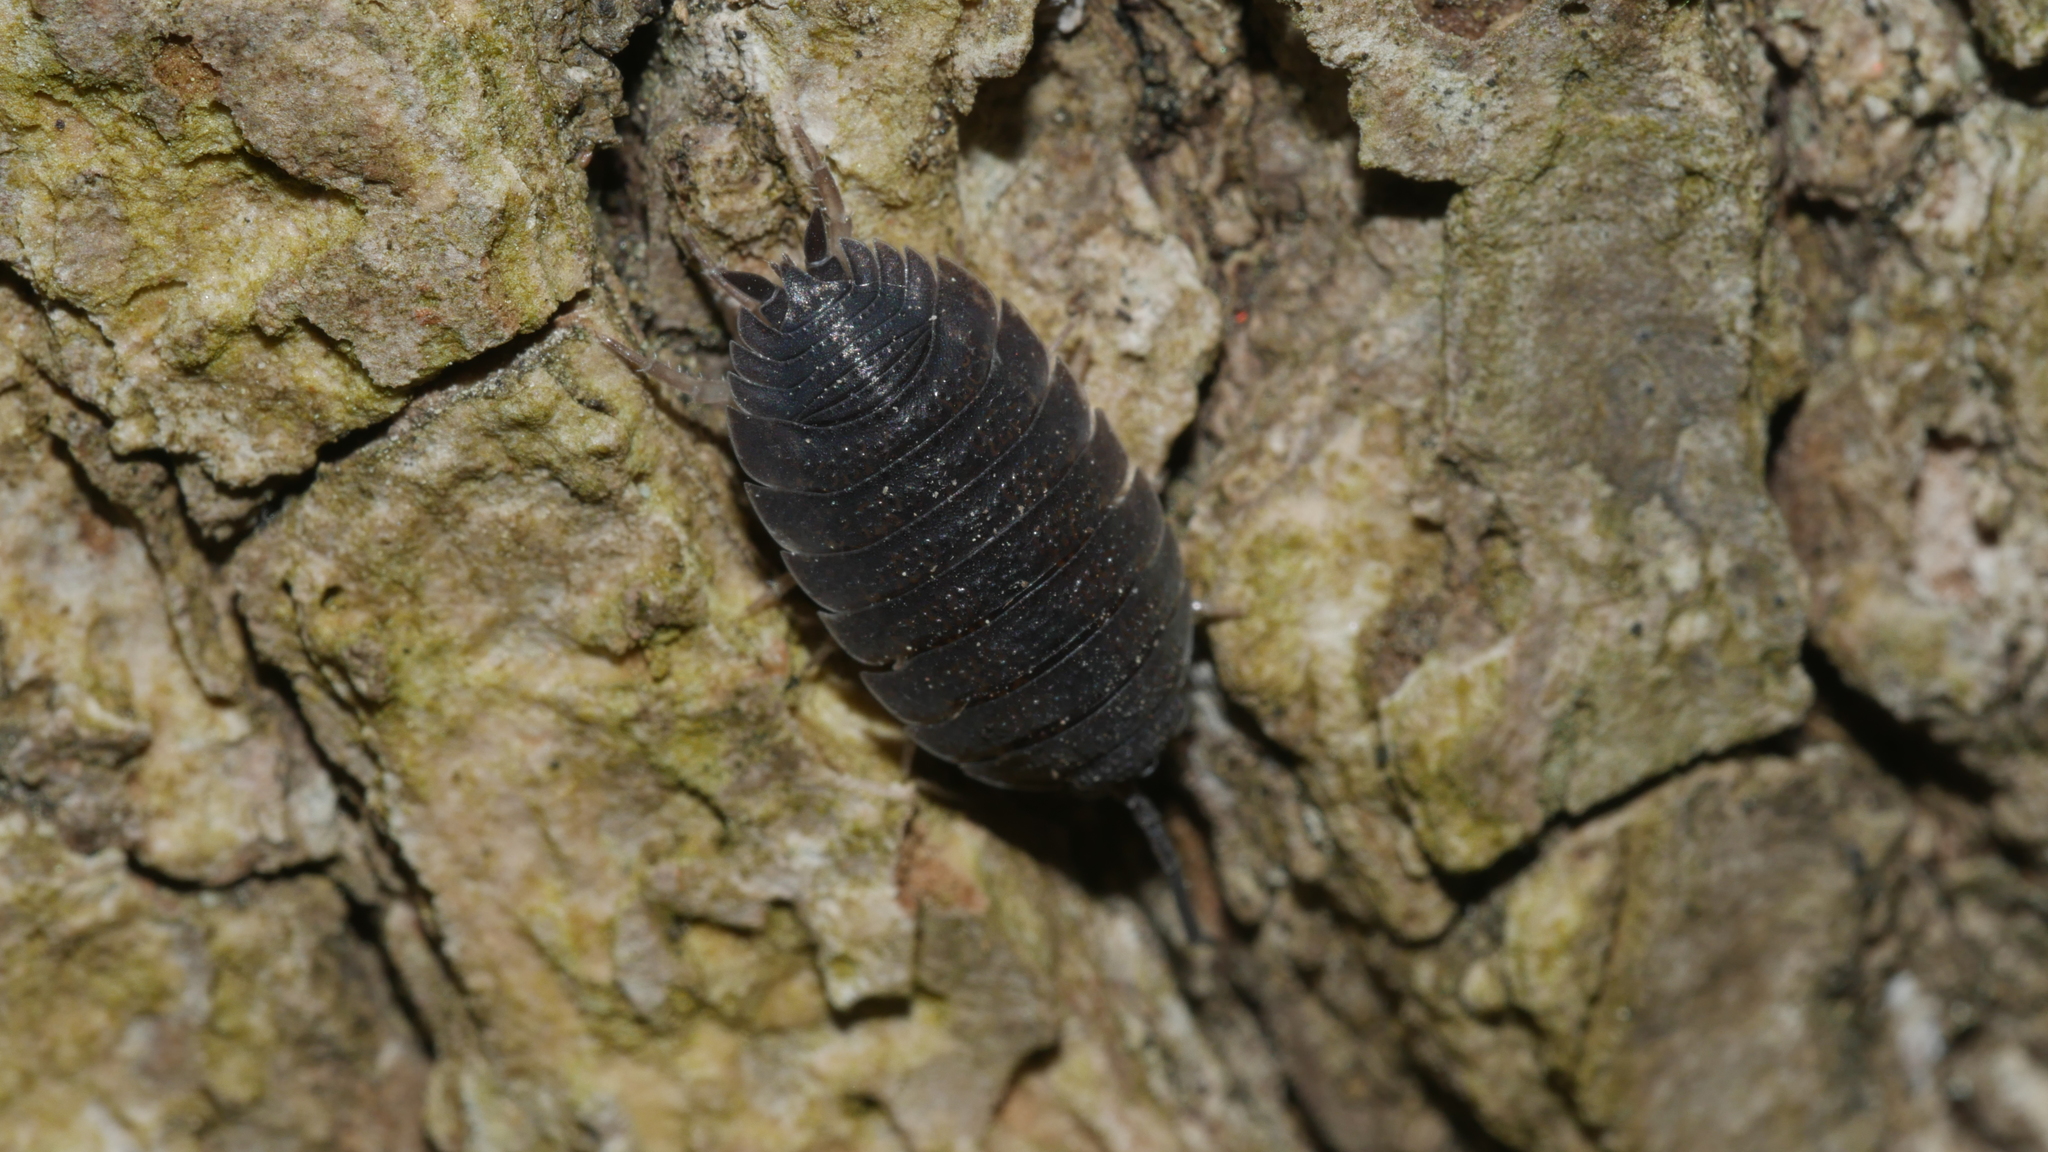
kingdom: Animalia
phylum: Arthropoda
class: Malacostraca
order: Isopoda
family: Porcellionidae
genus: Porcellio
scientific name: Porcellio scaber
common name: Common rough woodlouse
